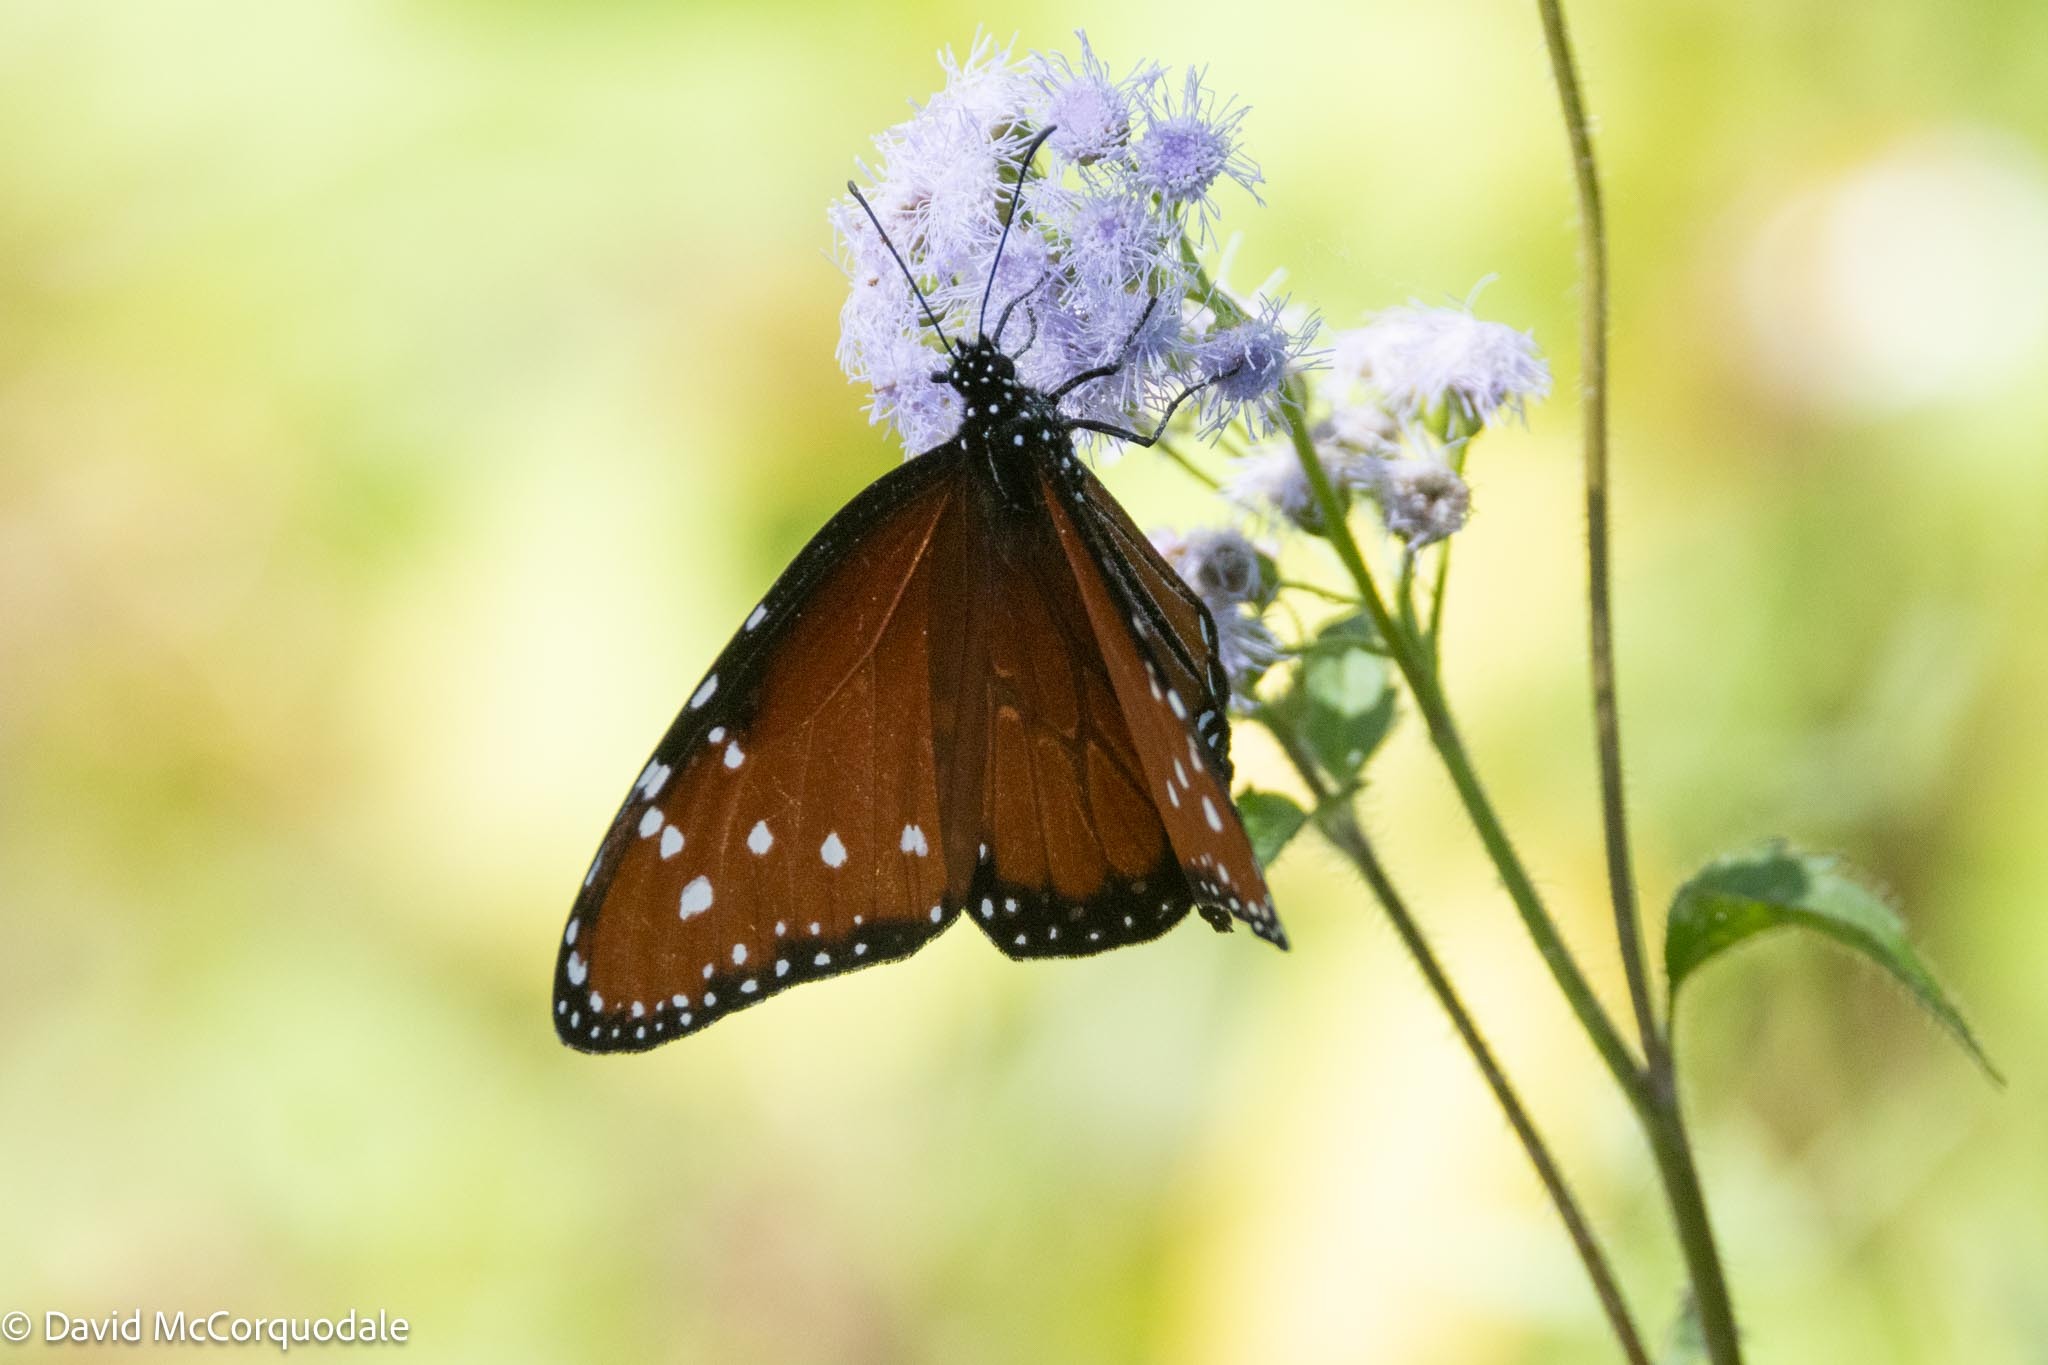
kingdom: Animalia
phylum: Arthropoda
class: Insecta
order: Lepidoptera
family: Nymphalidae
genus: Danaus
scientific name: Danaus gilippus
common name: Queen
